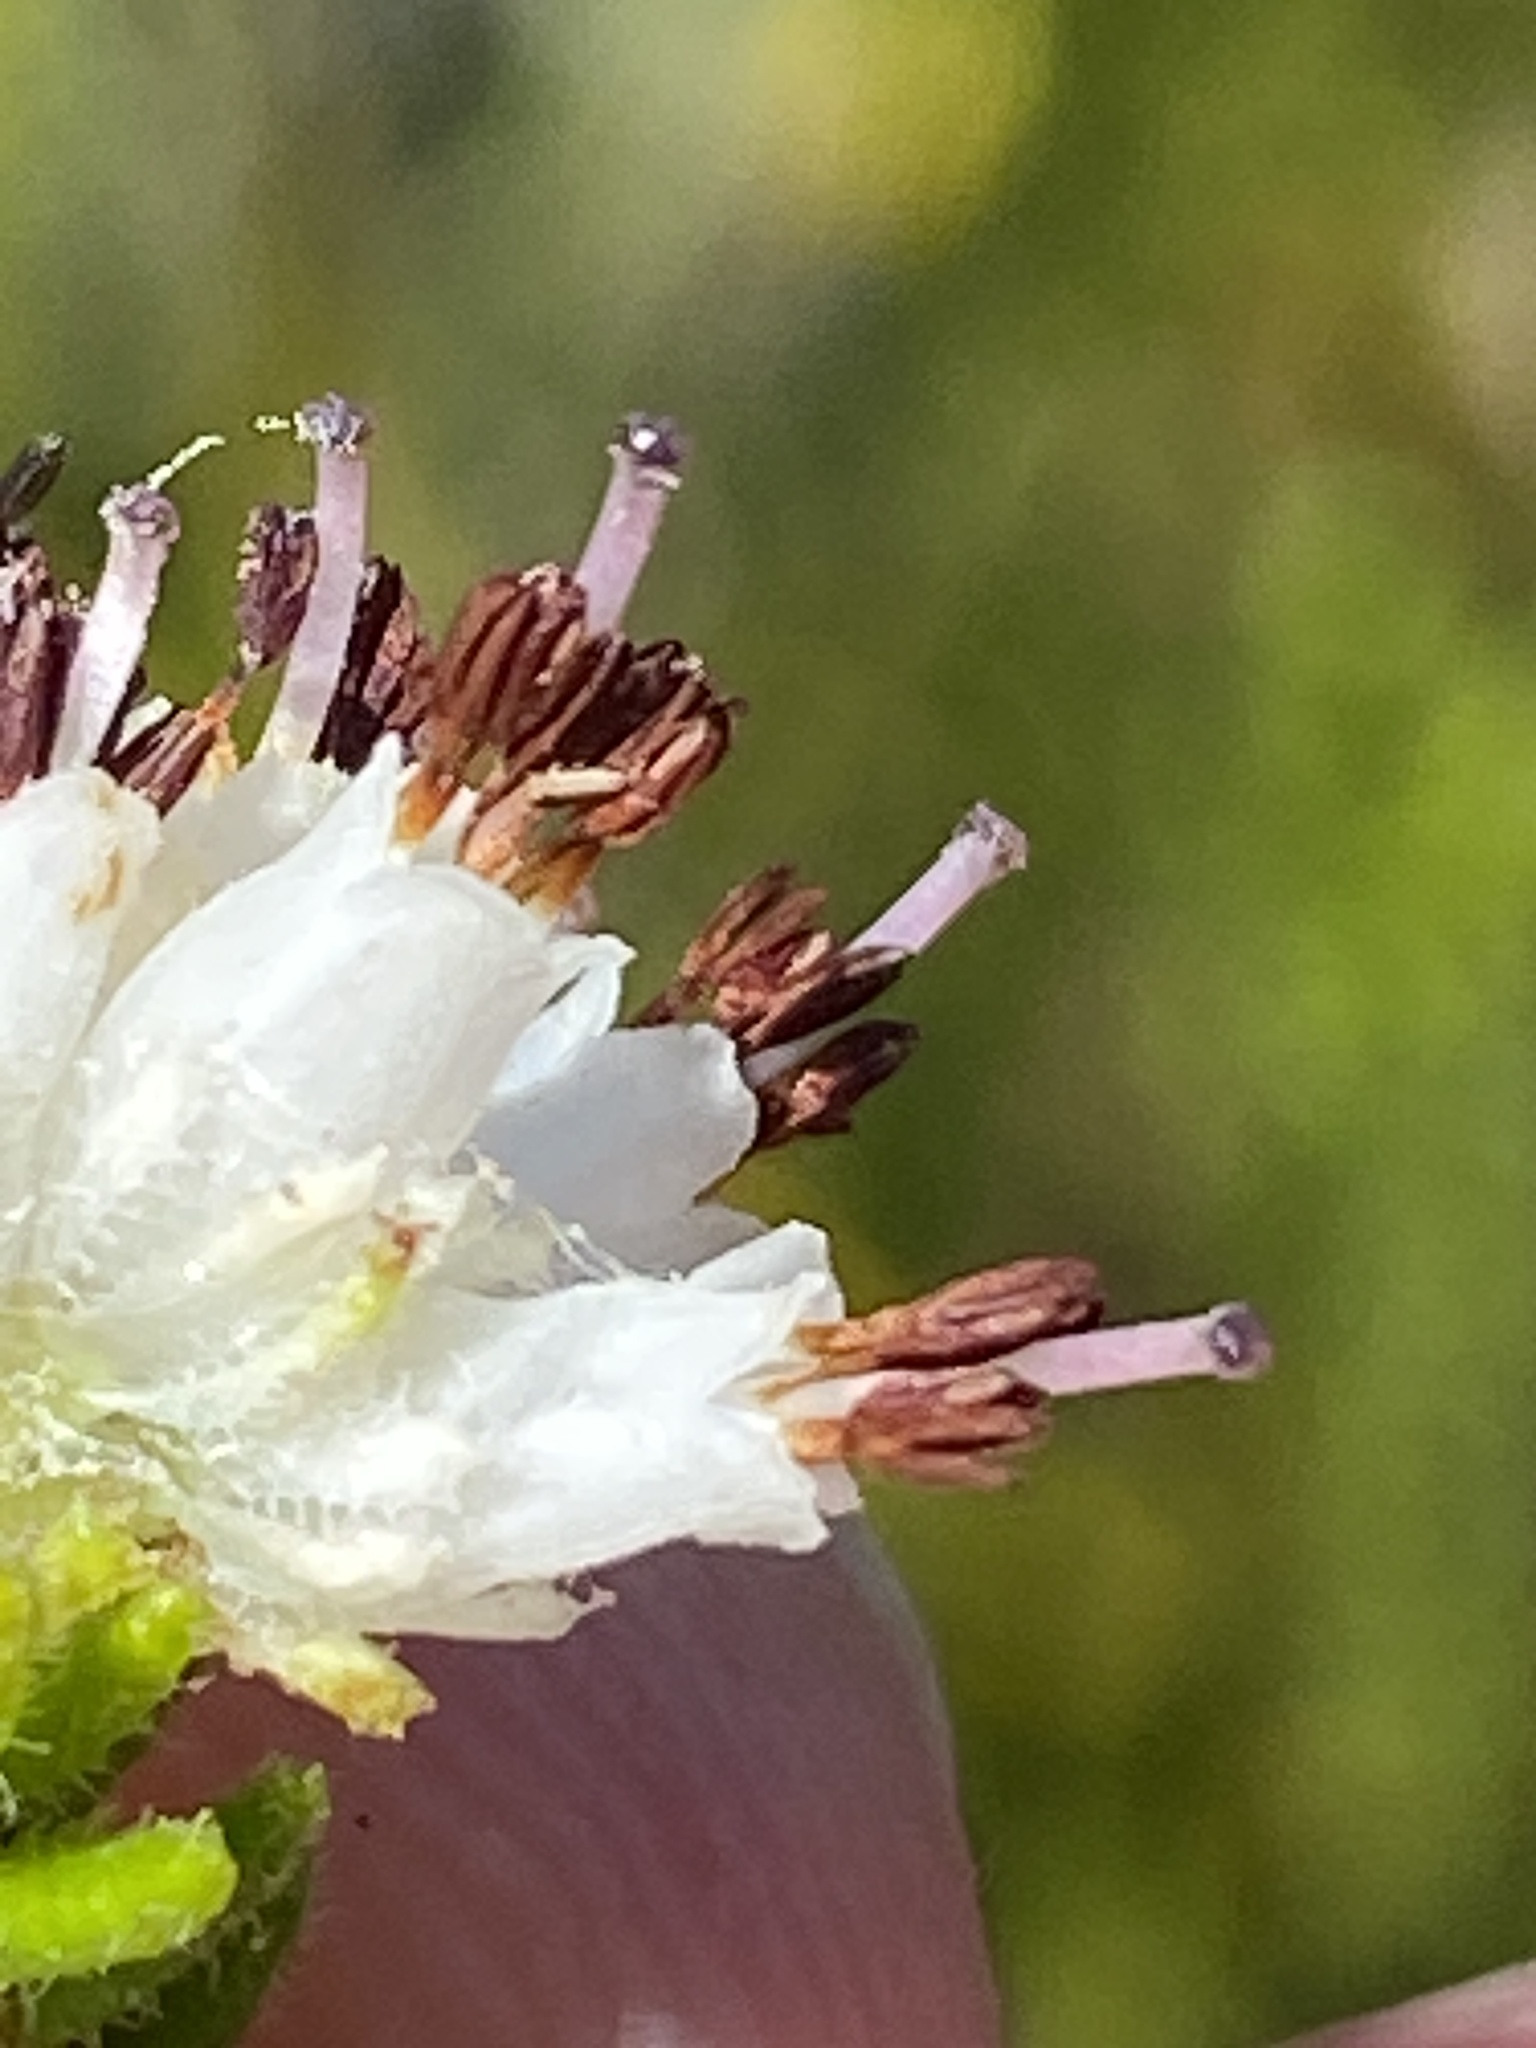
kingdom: Plantae
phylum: Tracheophyta
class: Magnoliopsida
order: Ericales
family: Ericaceae
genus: Erica
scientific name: Erica stylaris
